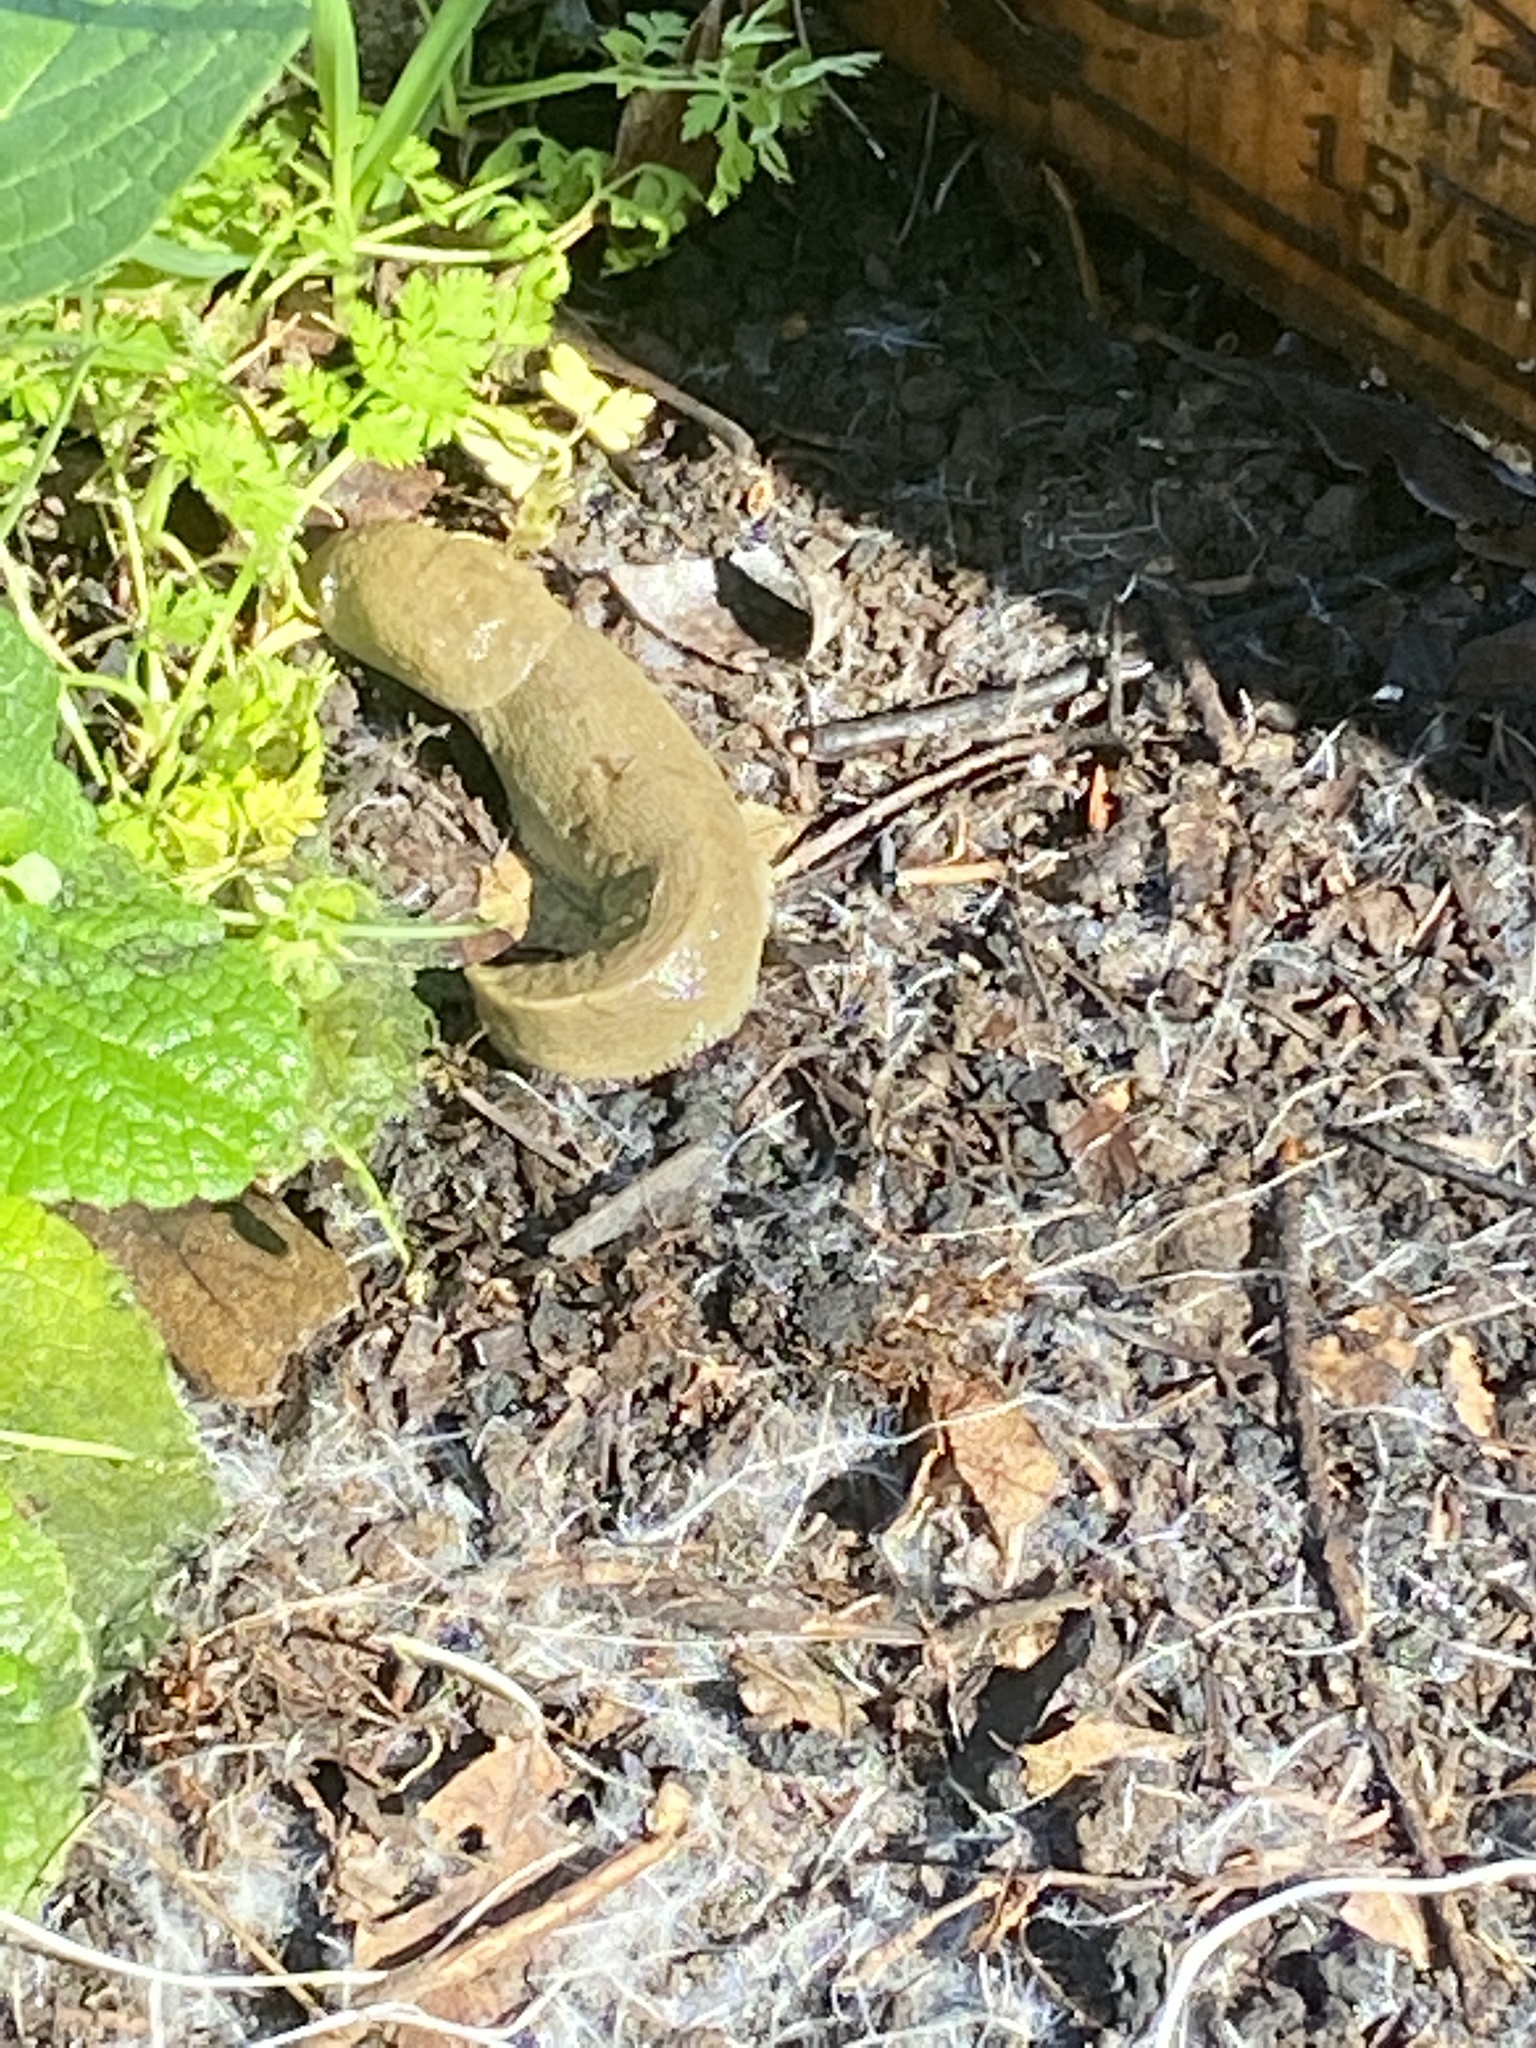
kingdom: Animalia
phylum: Mollusca
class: Gastropoda
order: Stylommatophora
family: Ariolimacidae
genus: Ariolimax
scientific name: Ariolimax buttoni
